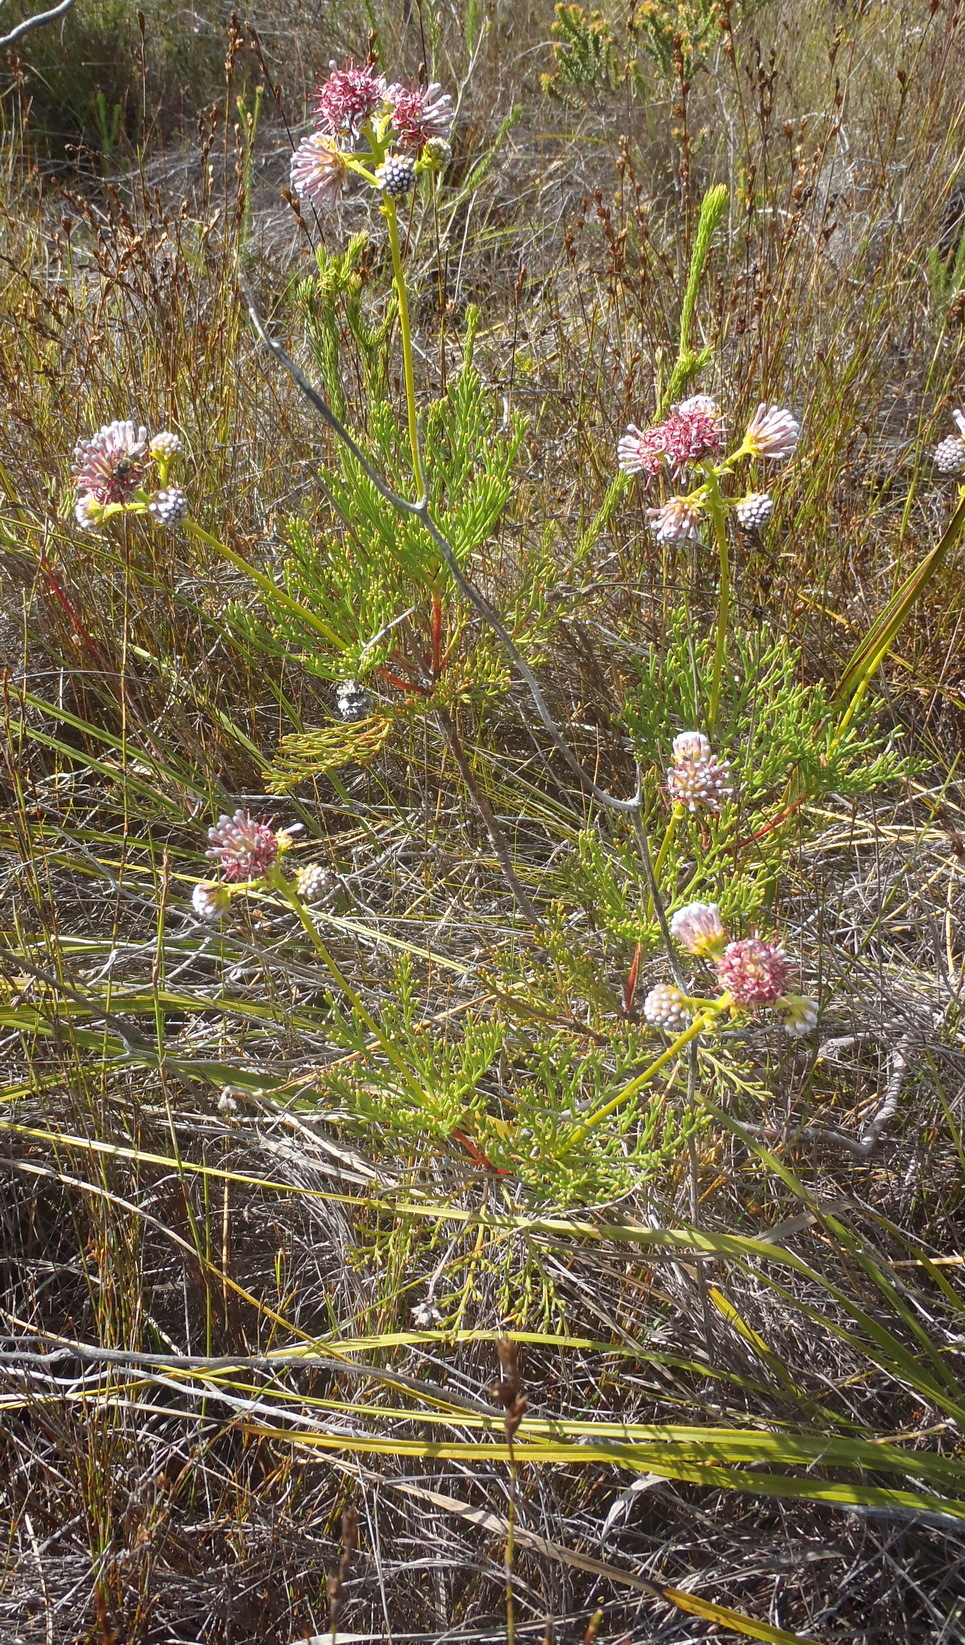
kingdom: Plantae
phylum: Tracheophyta
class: Magnoliopsida
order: Proteales
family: Proteaceae
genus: Serruria
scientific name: Serruria elongata
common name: Long-stalk spiderhead
